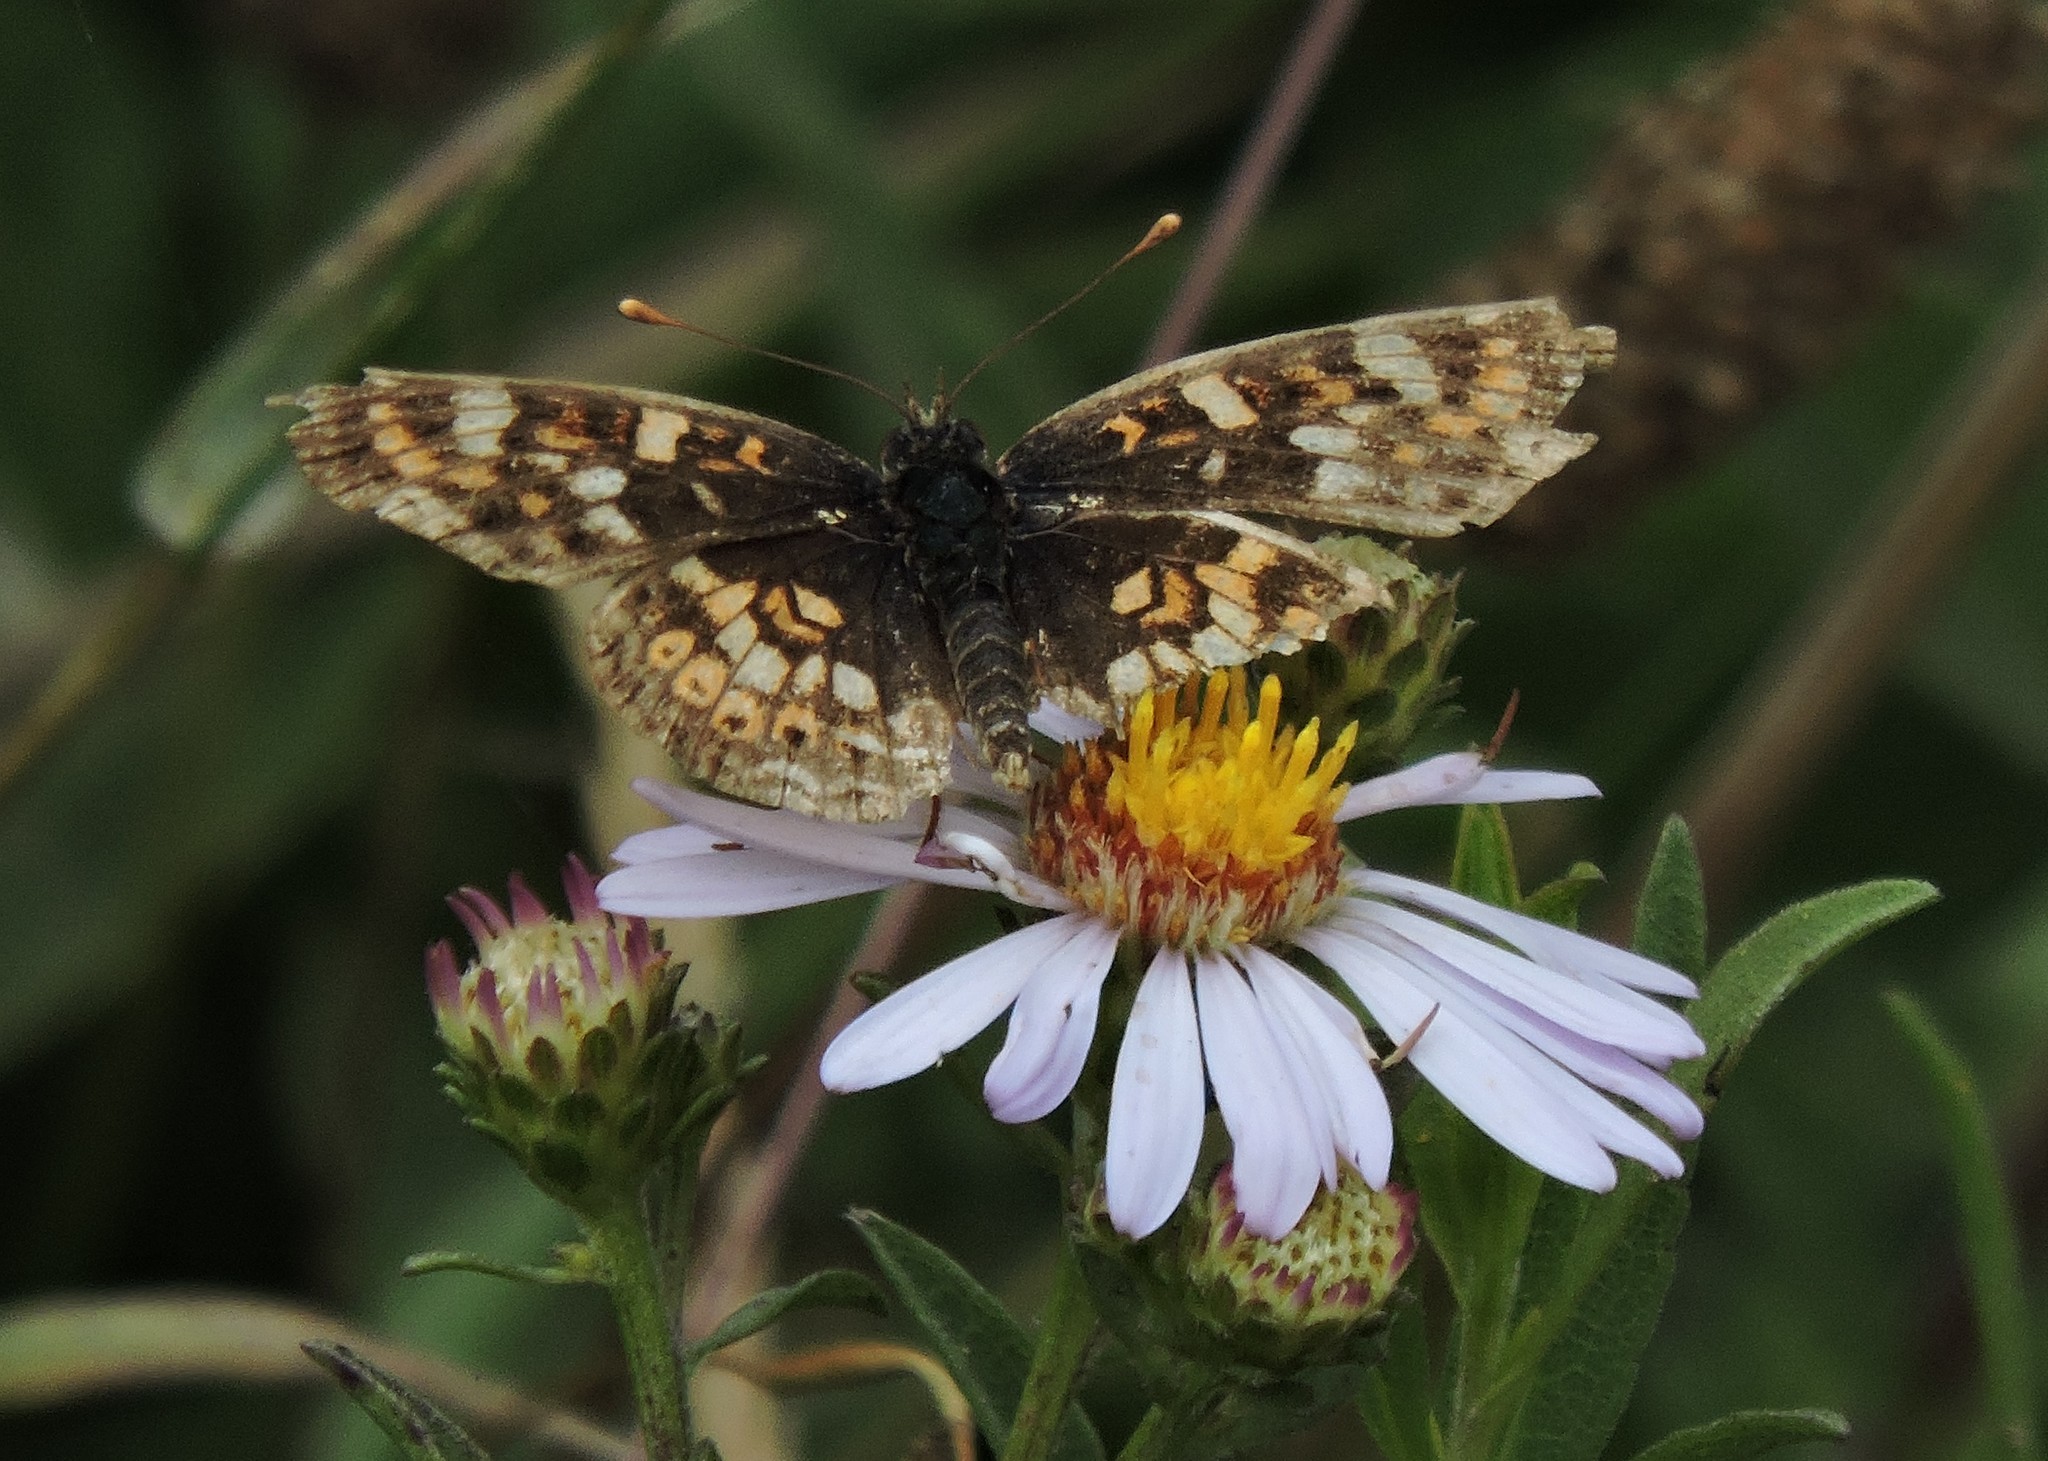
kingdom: Animalia
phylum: Arthropoda
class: Insecta
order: Lepidoptera
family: Nymphalidae
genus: Phyciodes
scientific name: Phyciodes tharos
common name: Pearl crescent
